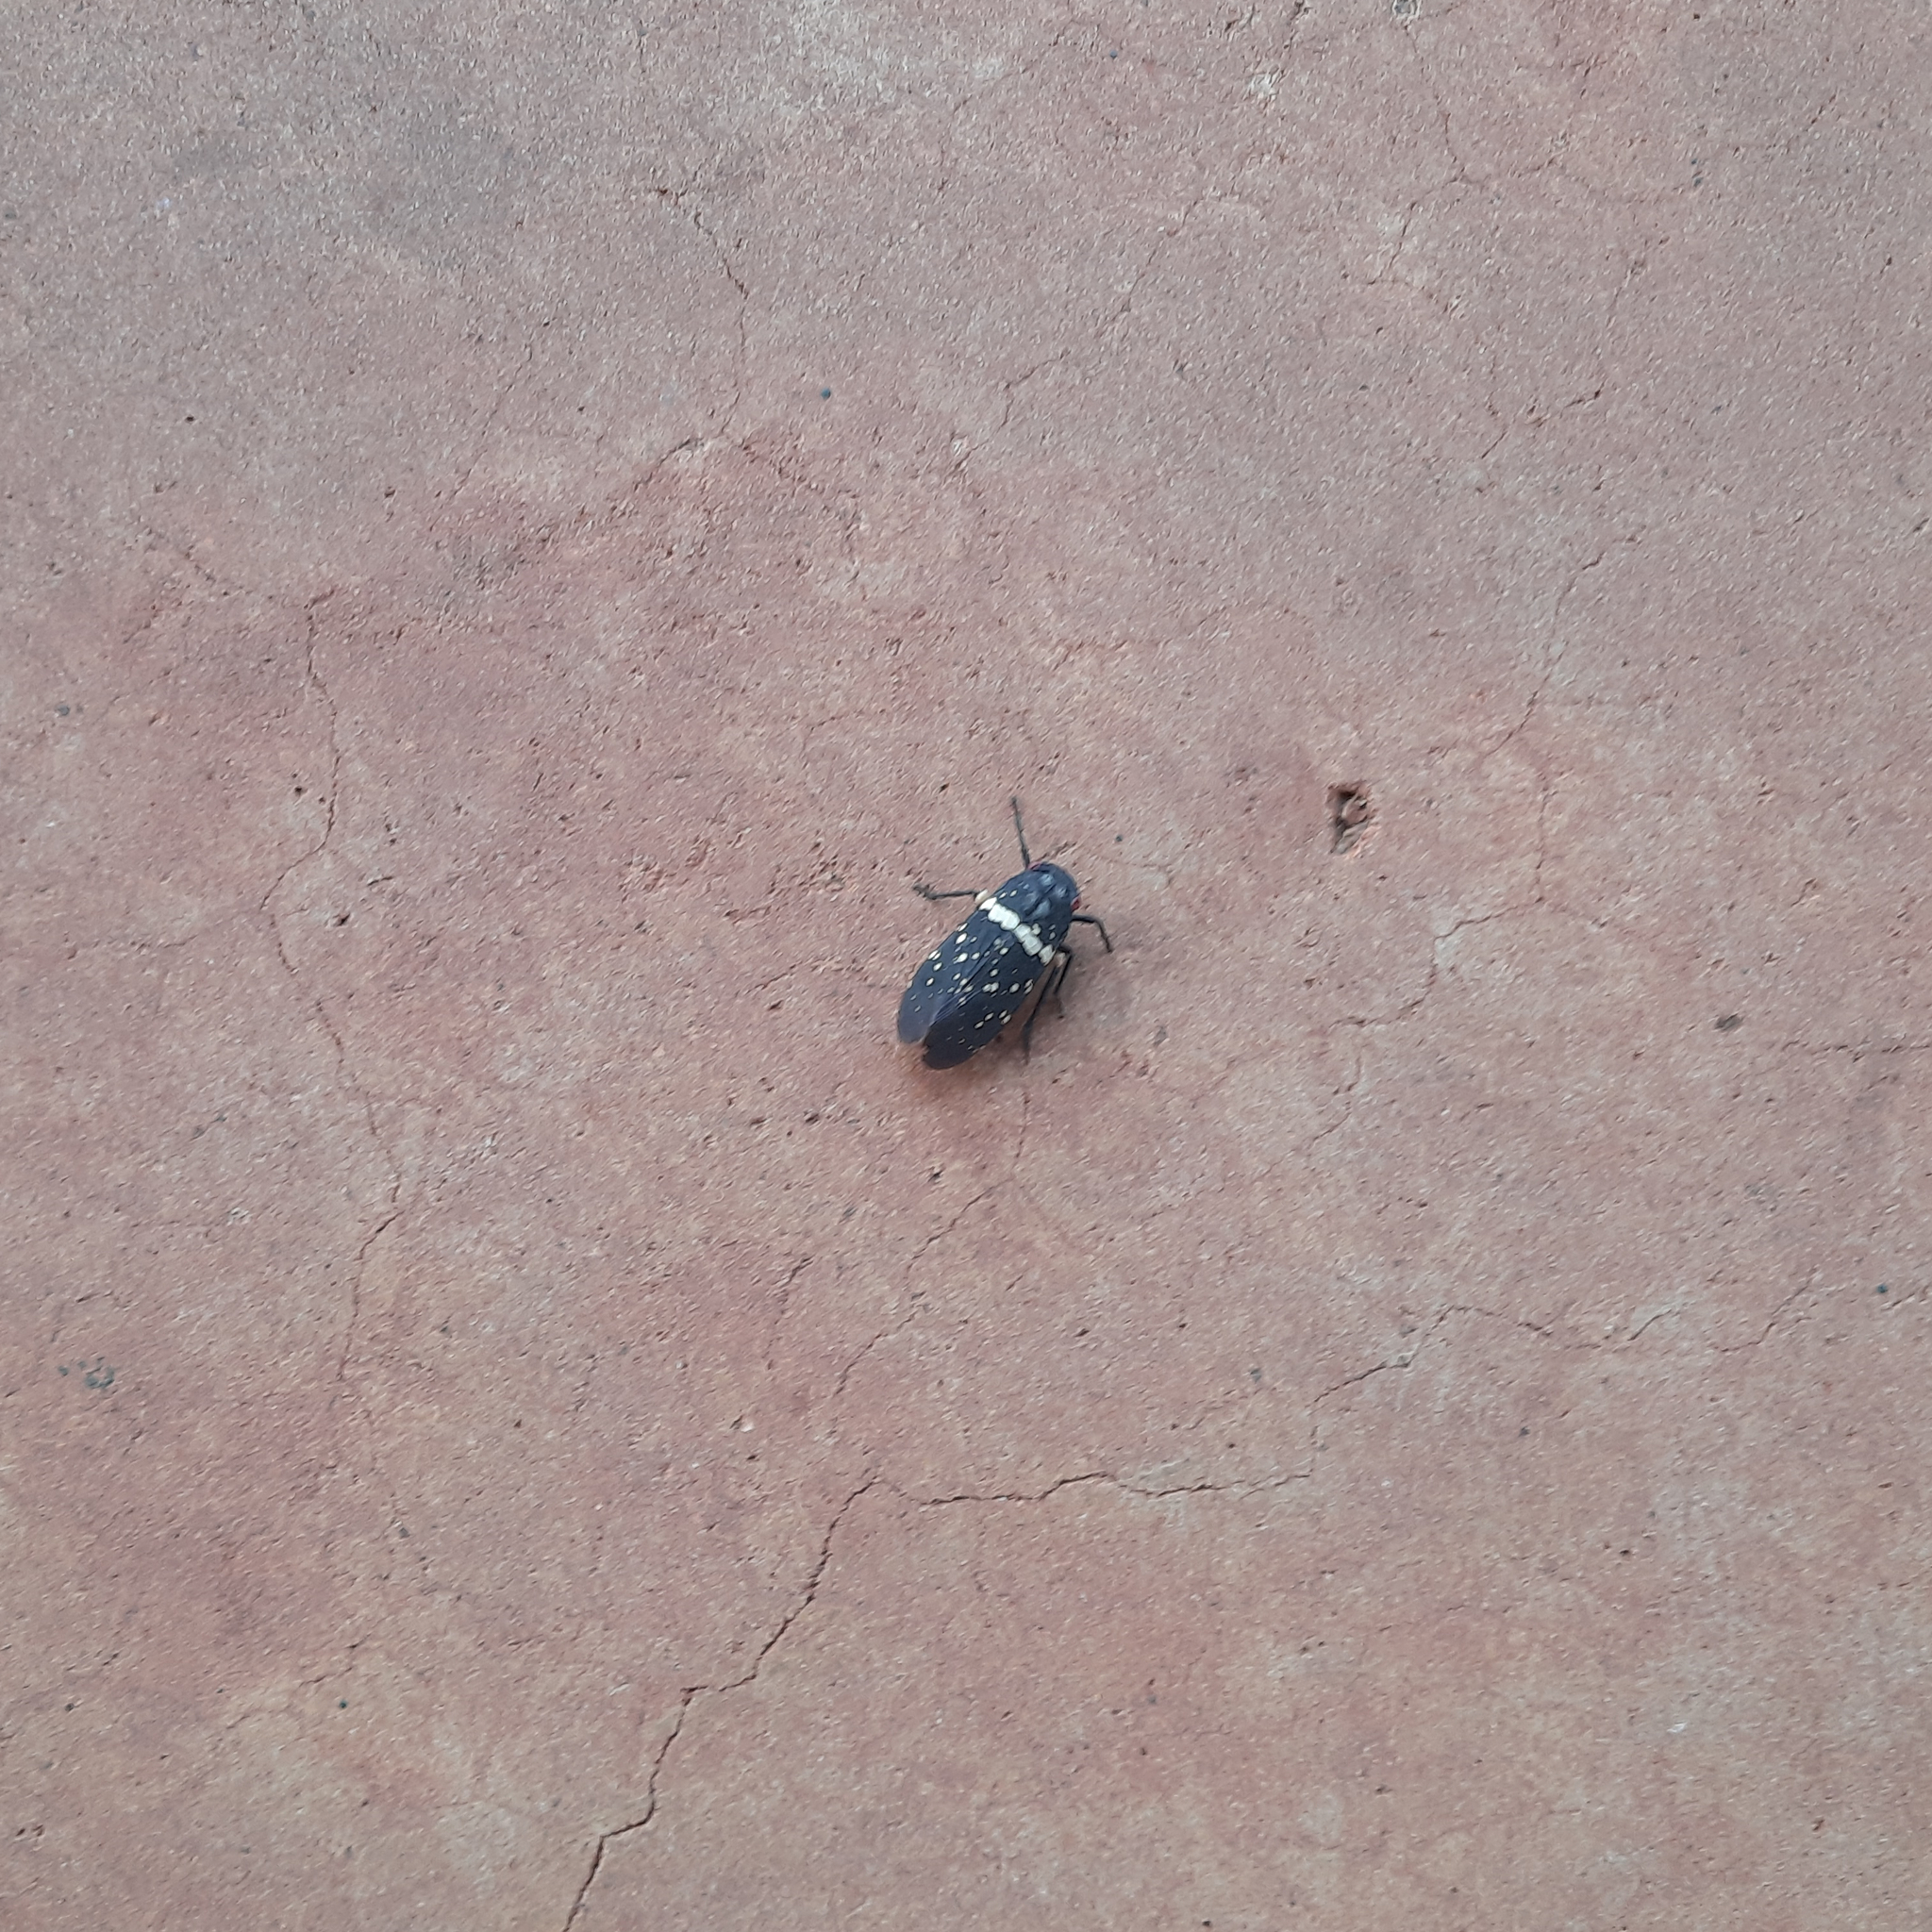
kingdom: Animalia
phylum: Arthropoda
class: Insecta
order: Hemiptera
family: Fulgoridae
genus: Acraephia
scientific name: Acraephia opaca
